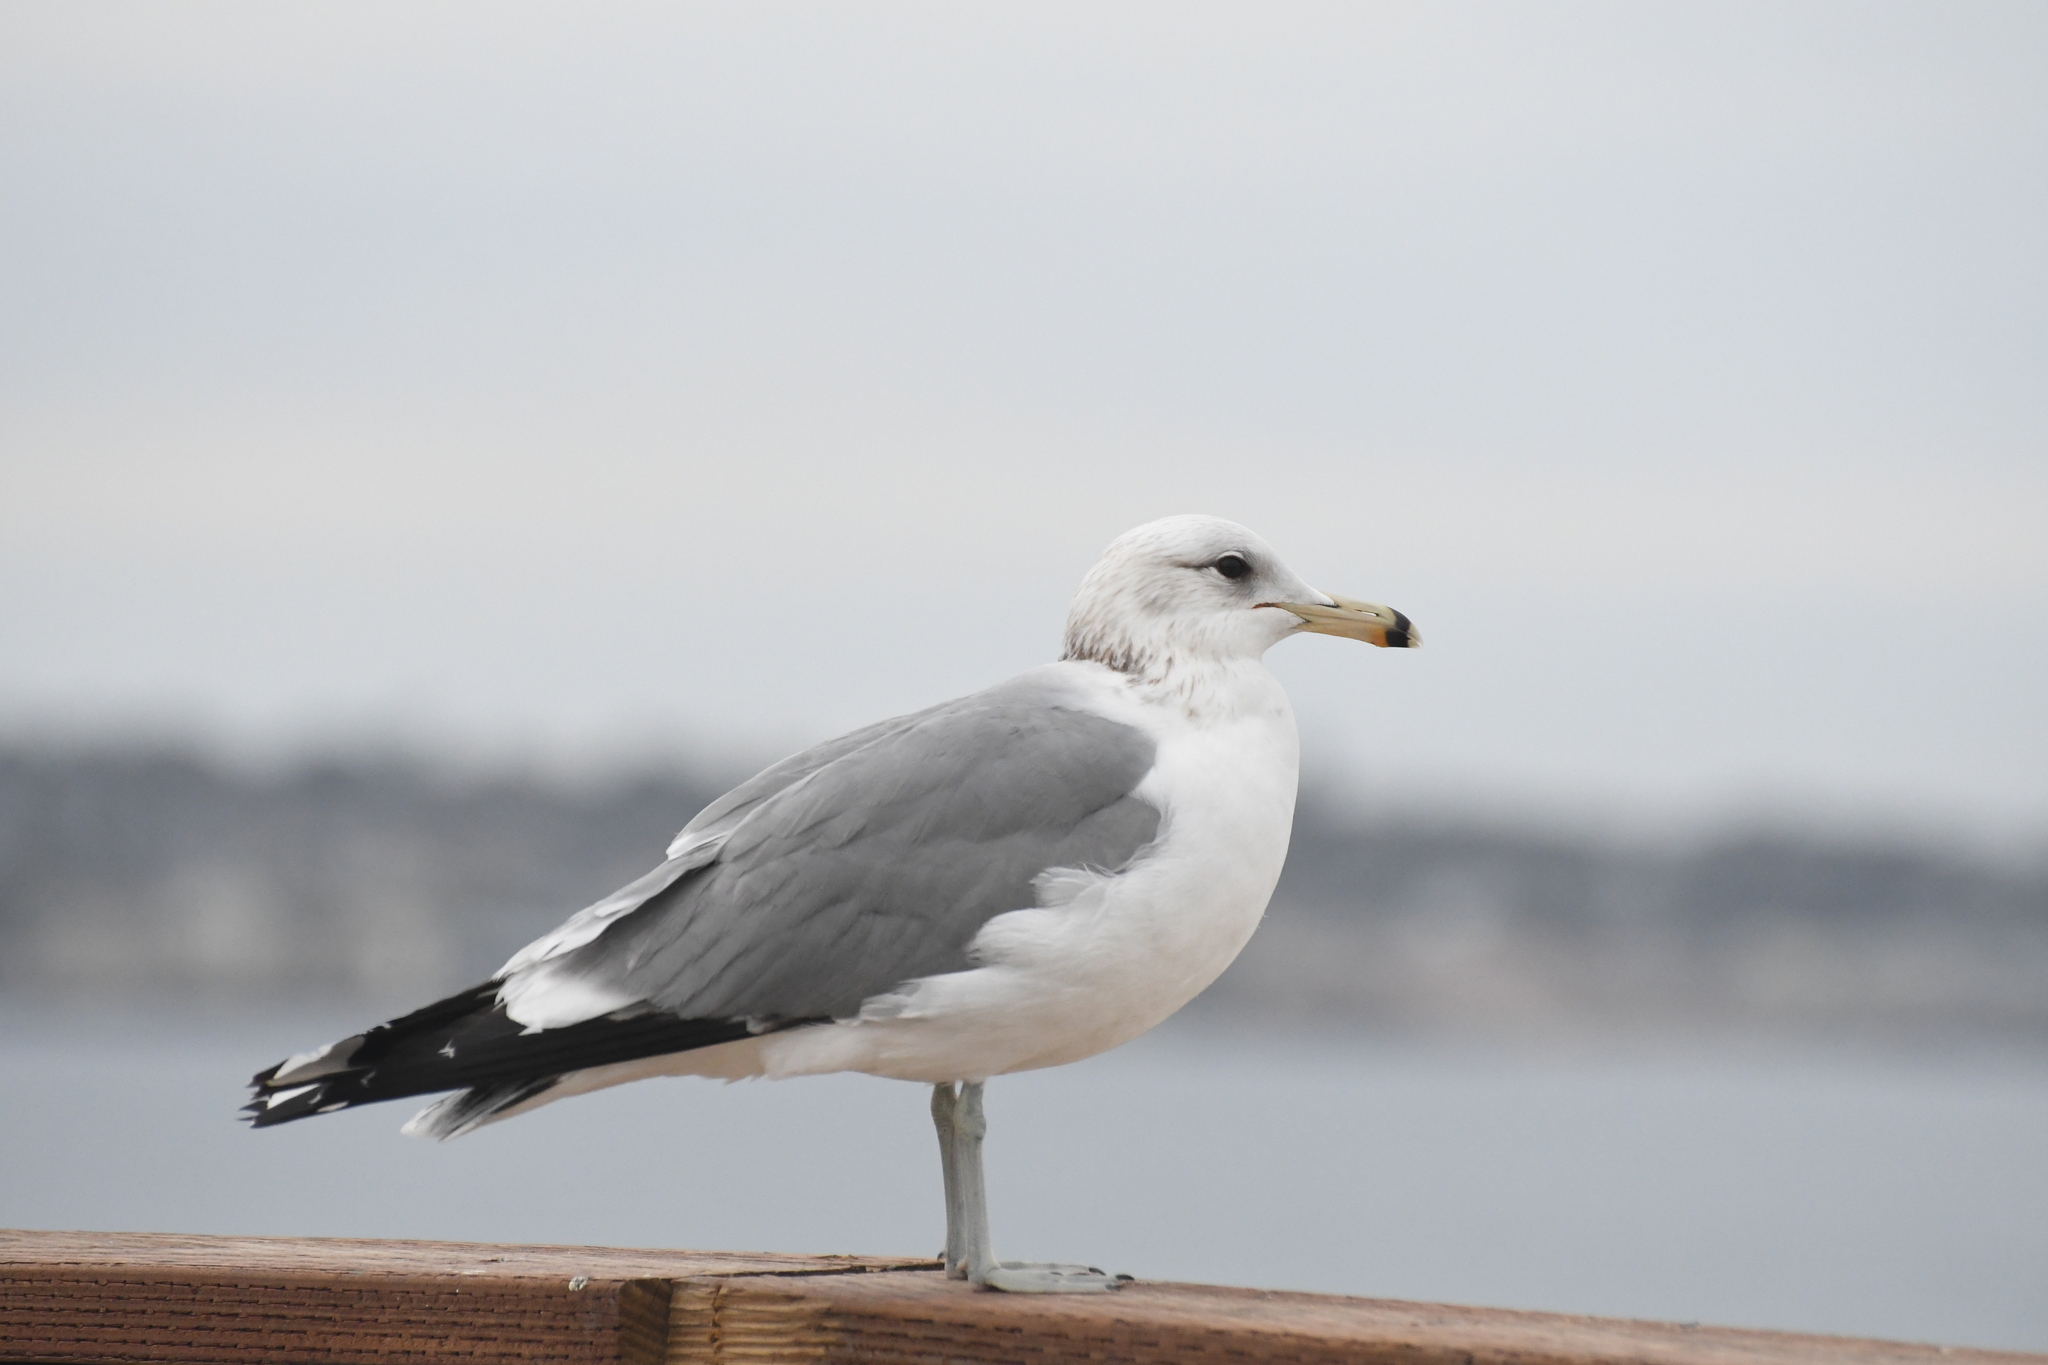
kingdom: Animalia
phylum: Chordata
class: Aves
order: Charadriiformes
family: Laridae
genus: Larus
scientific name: Larus californicus
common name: California gull
